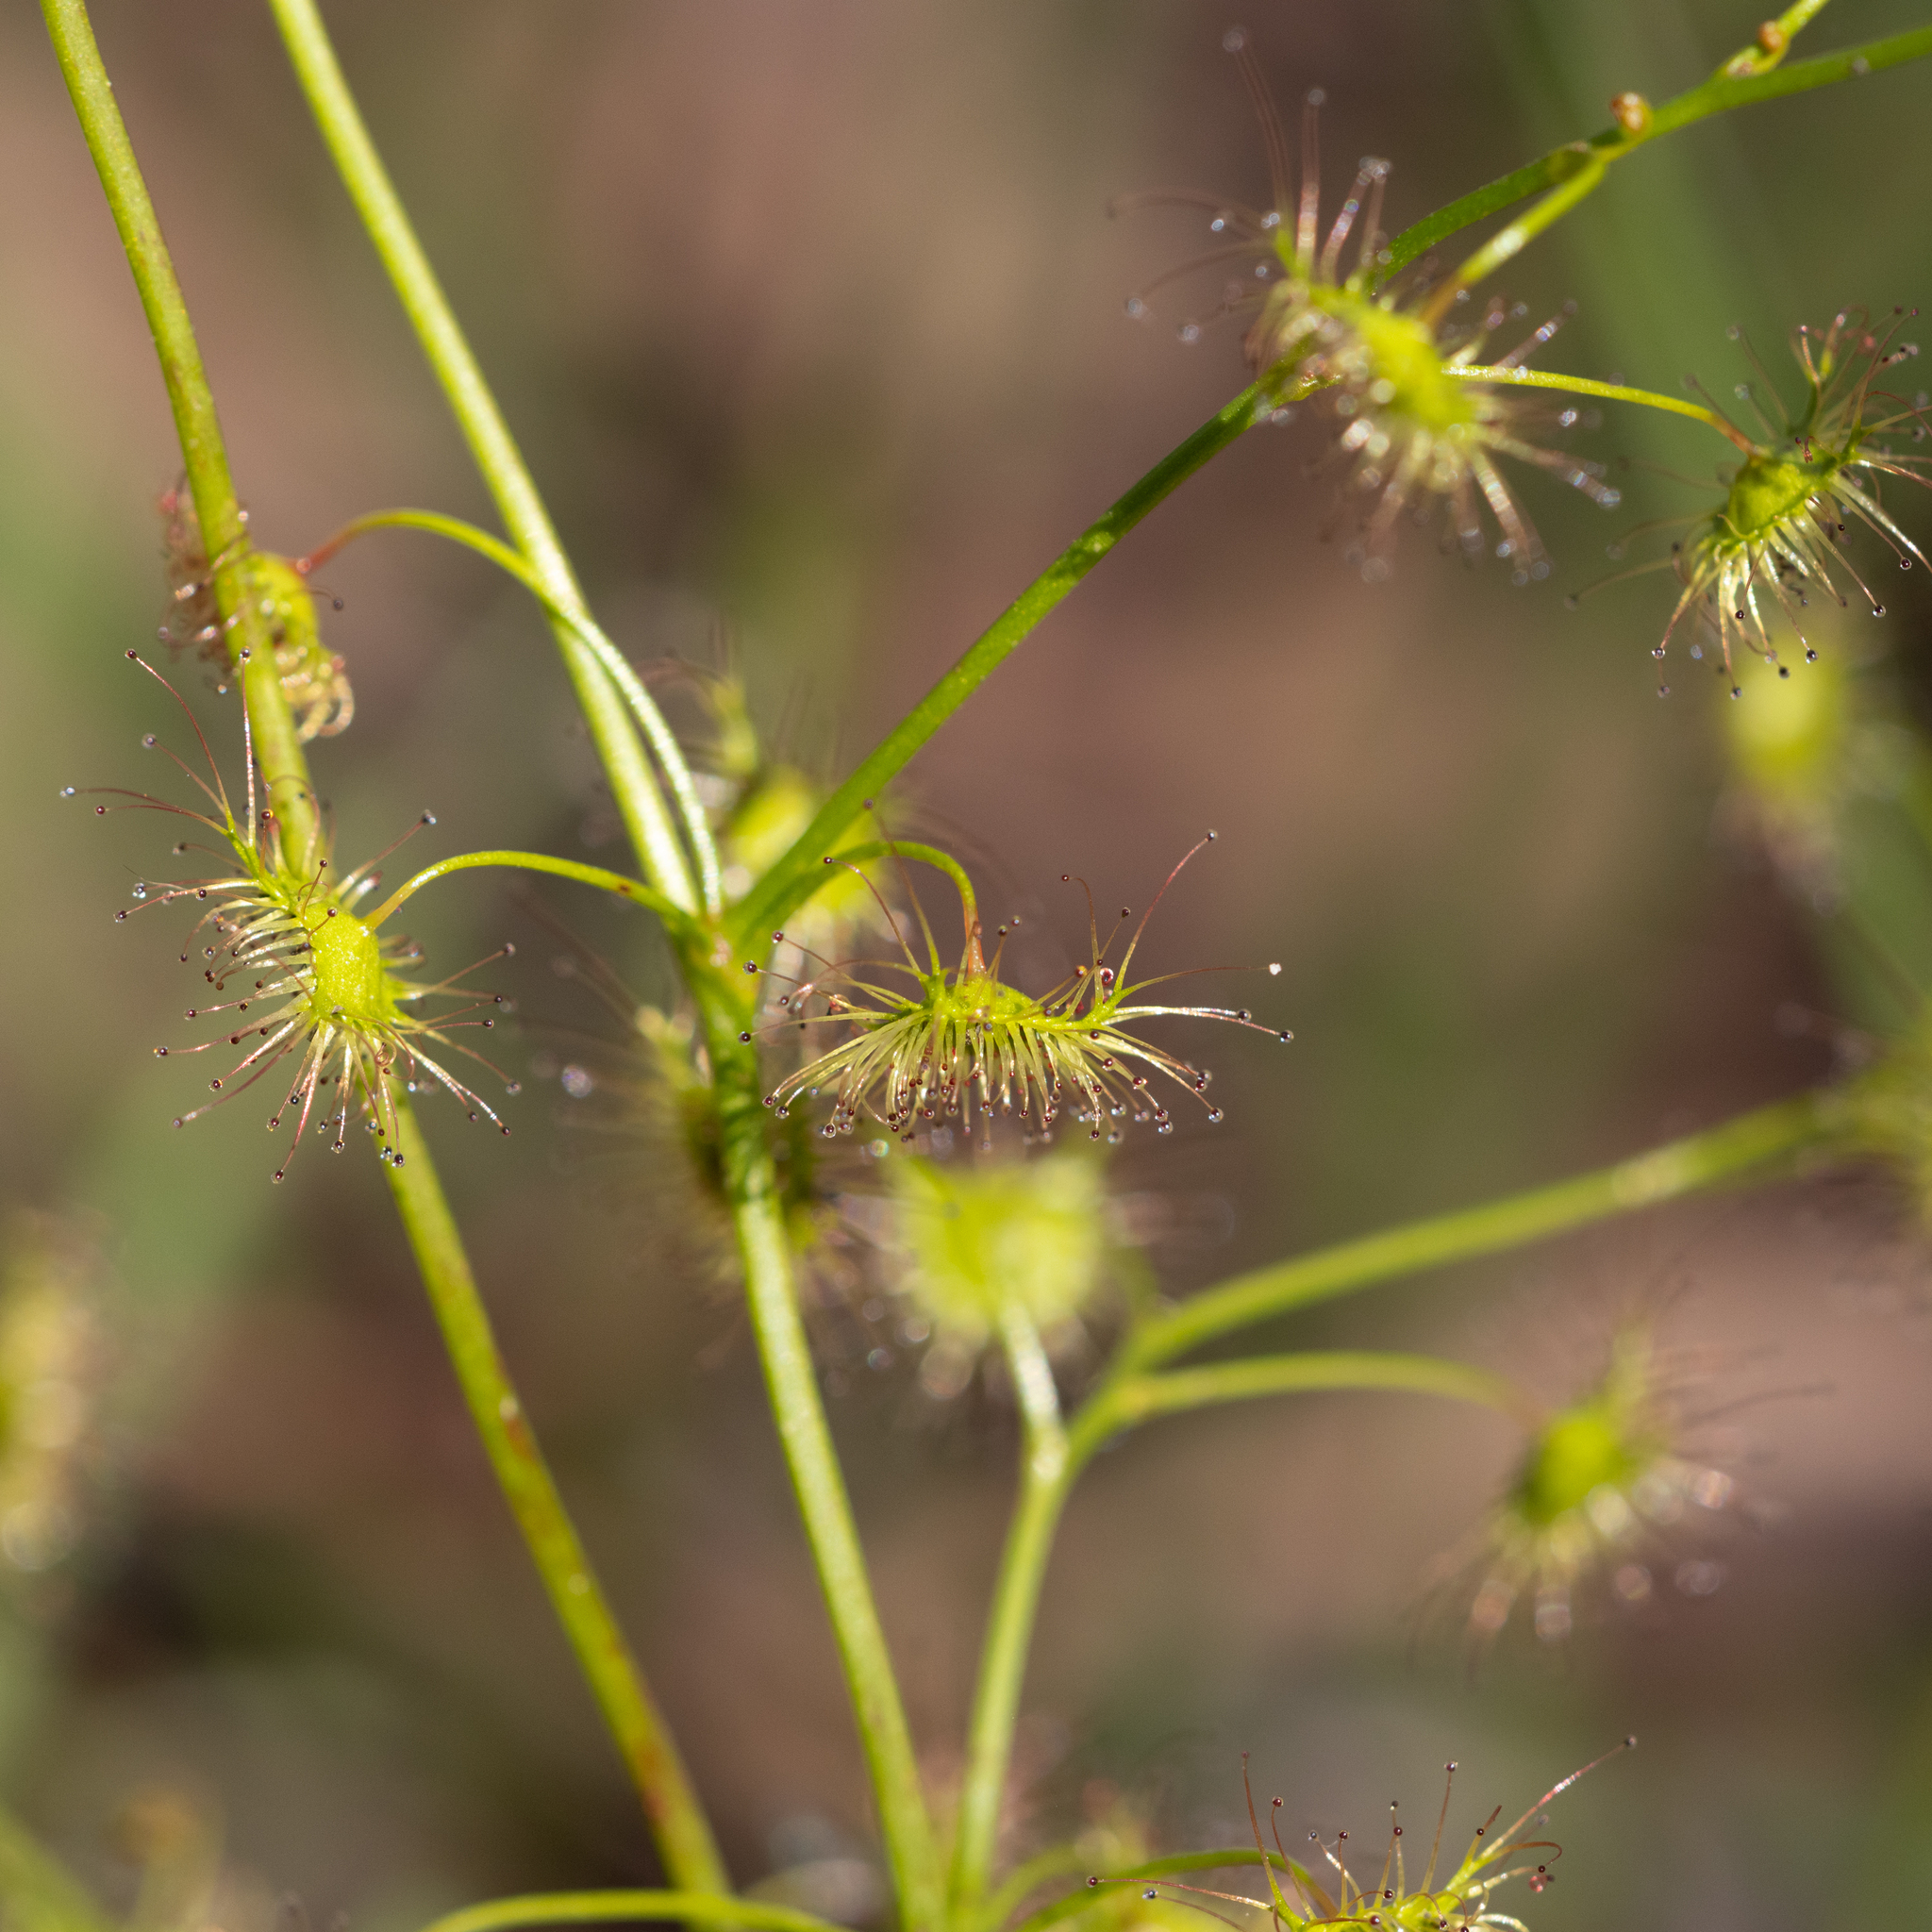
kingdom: Plantae
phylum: Tracheophyta
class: Magnoliopsida
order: Caryophyllales
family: Droseraceae
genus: Drosera
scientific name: Drosera peltata
